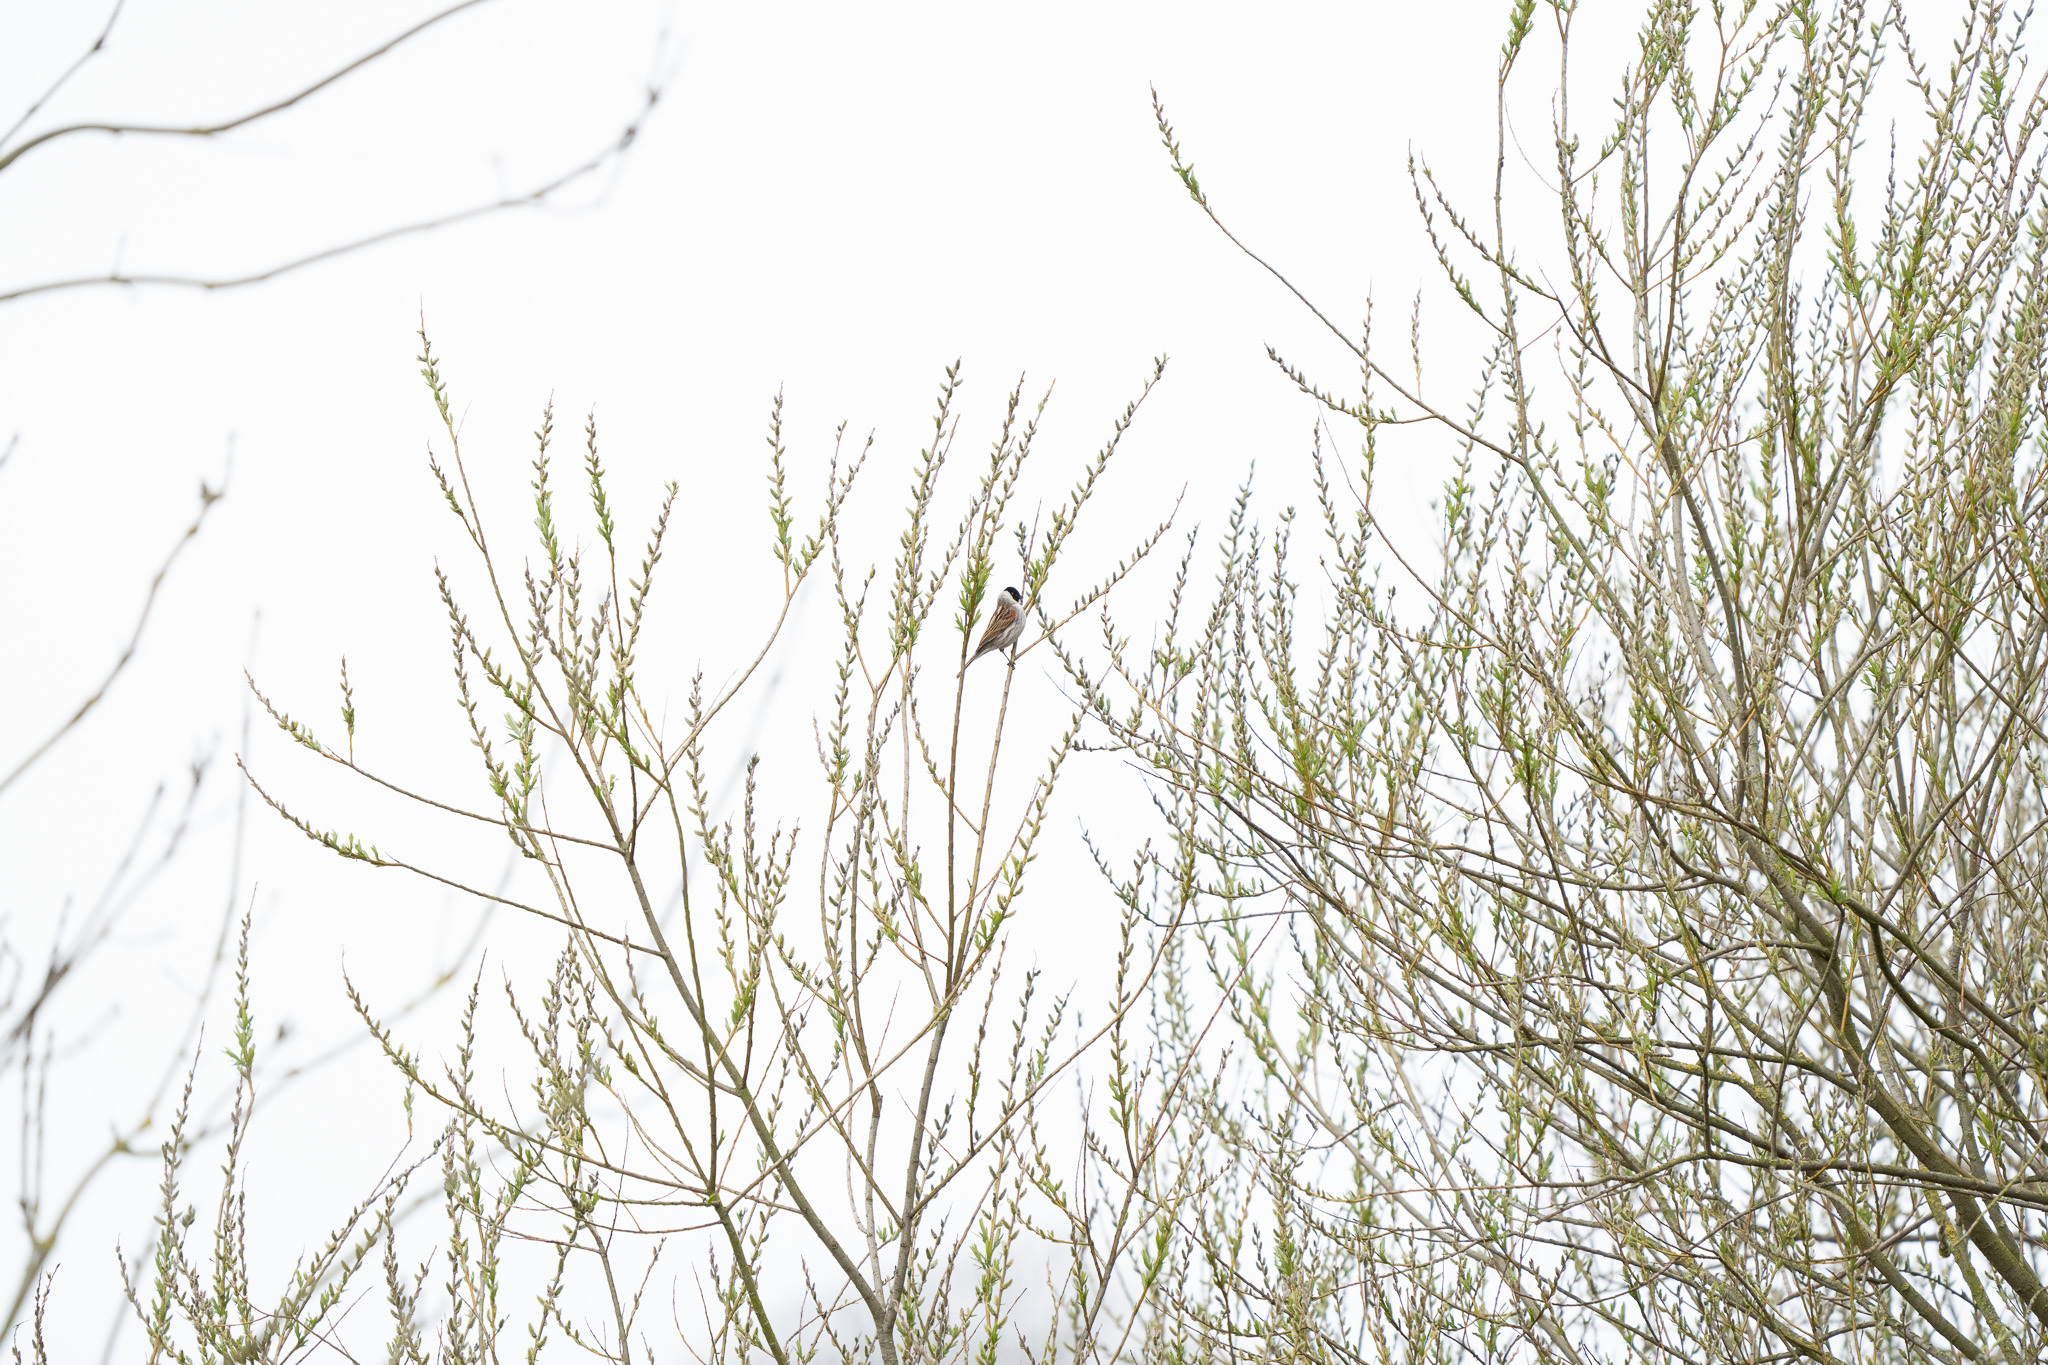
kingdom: Animalia
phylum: Chordata
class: Aves
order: Passeriformes
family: Emberizidae
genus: Emberiza
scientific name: Emberiza schoeniclus
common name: Reed bunting
